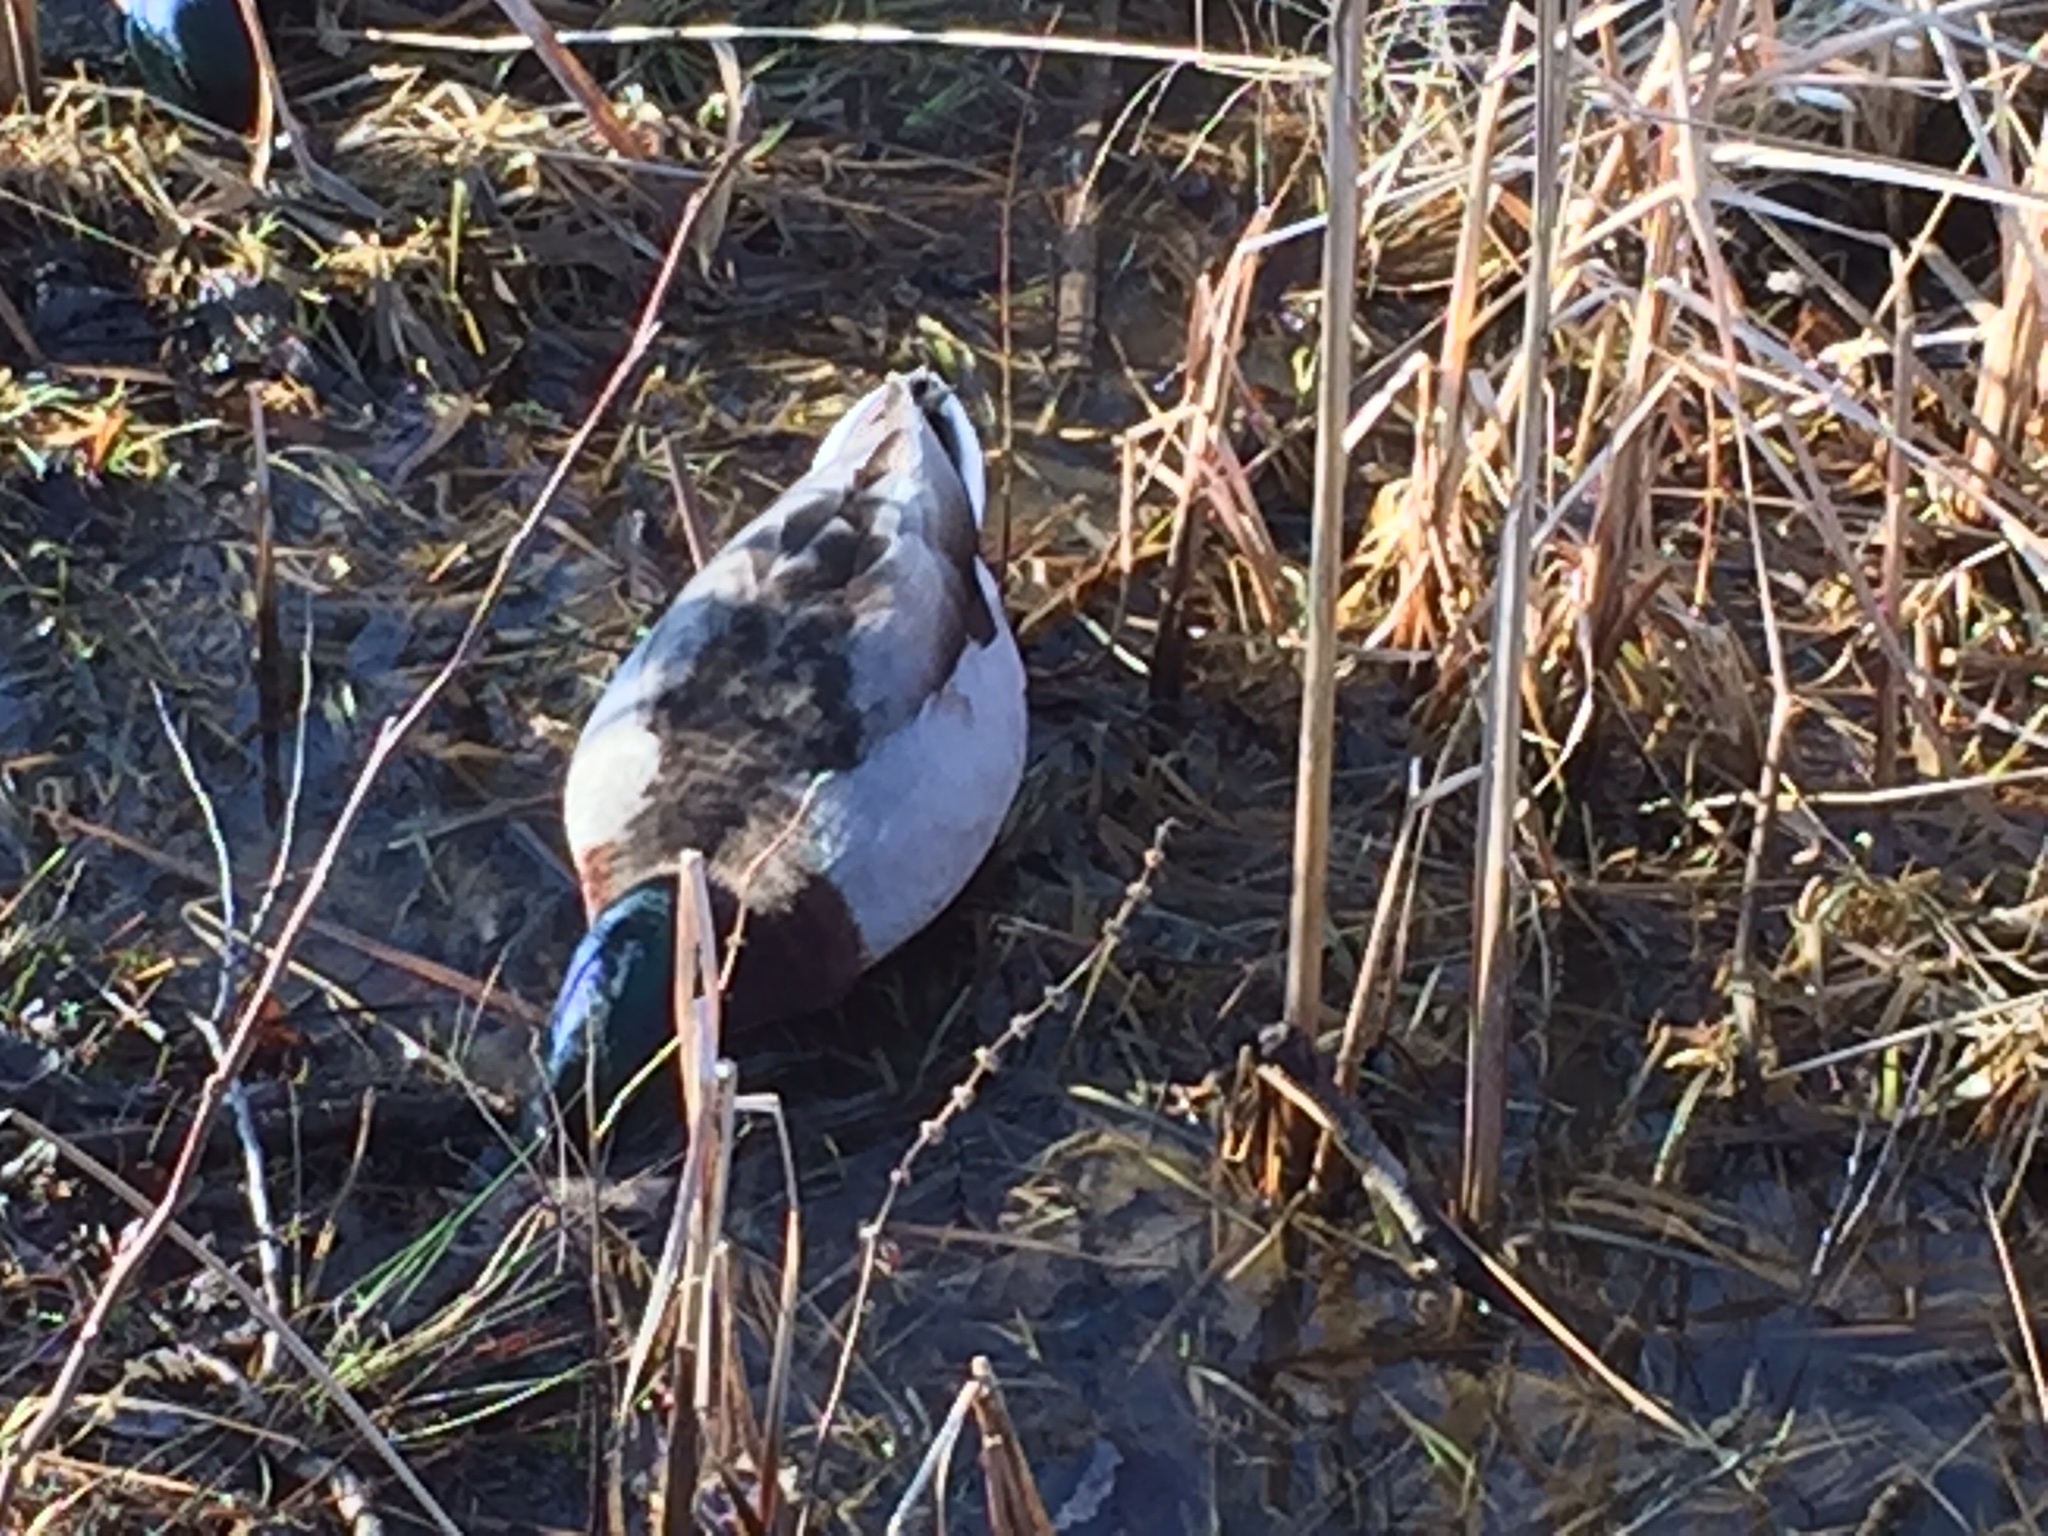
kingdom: Animalia
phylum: Chordata
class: Aves
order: Anseriformes
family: Anatidae
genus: Anas
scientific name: Anas platyrhynchos
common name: Mallard
